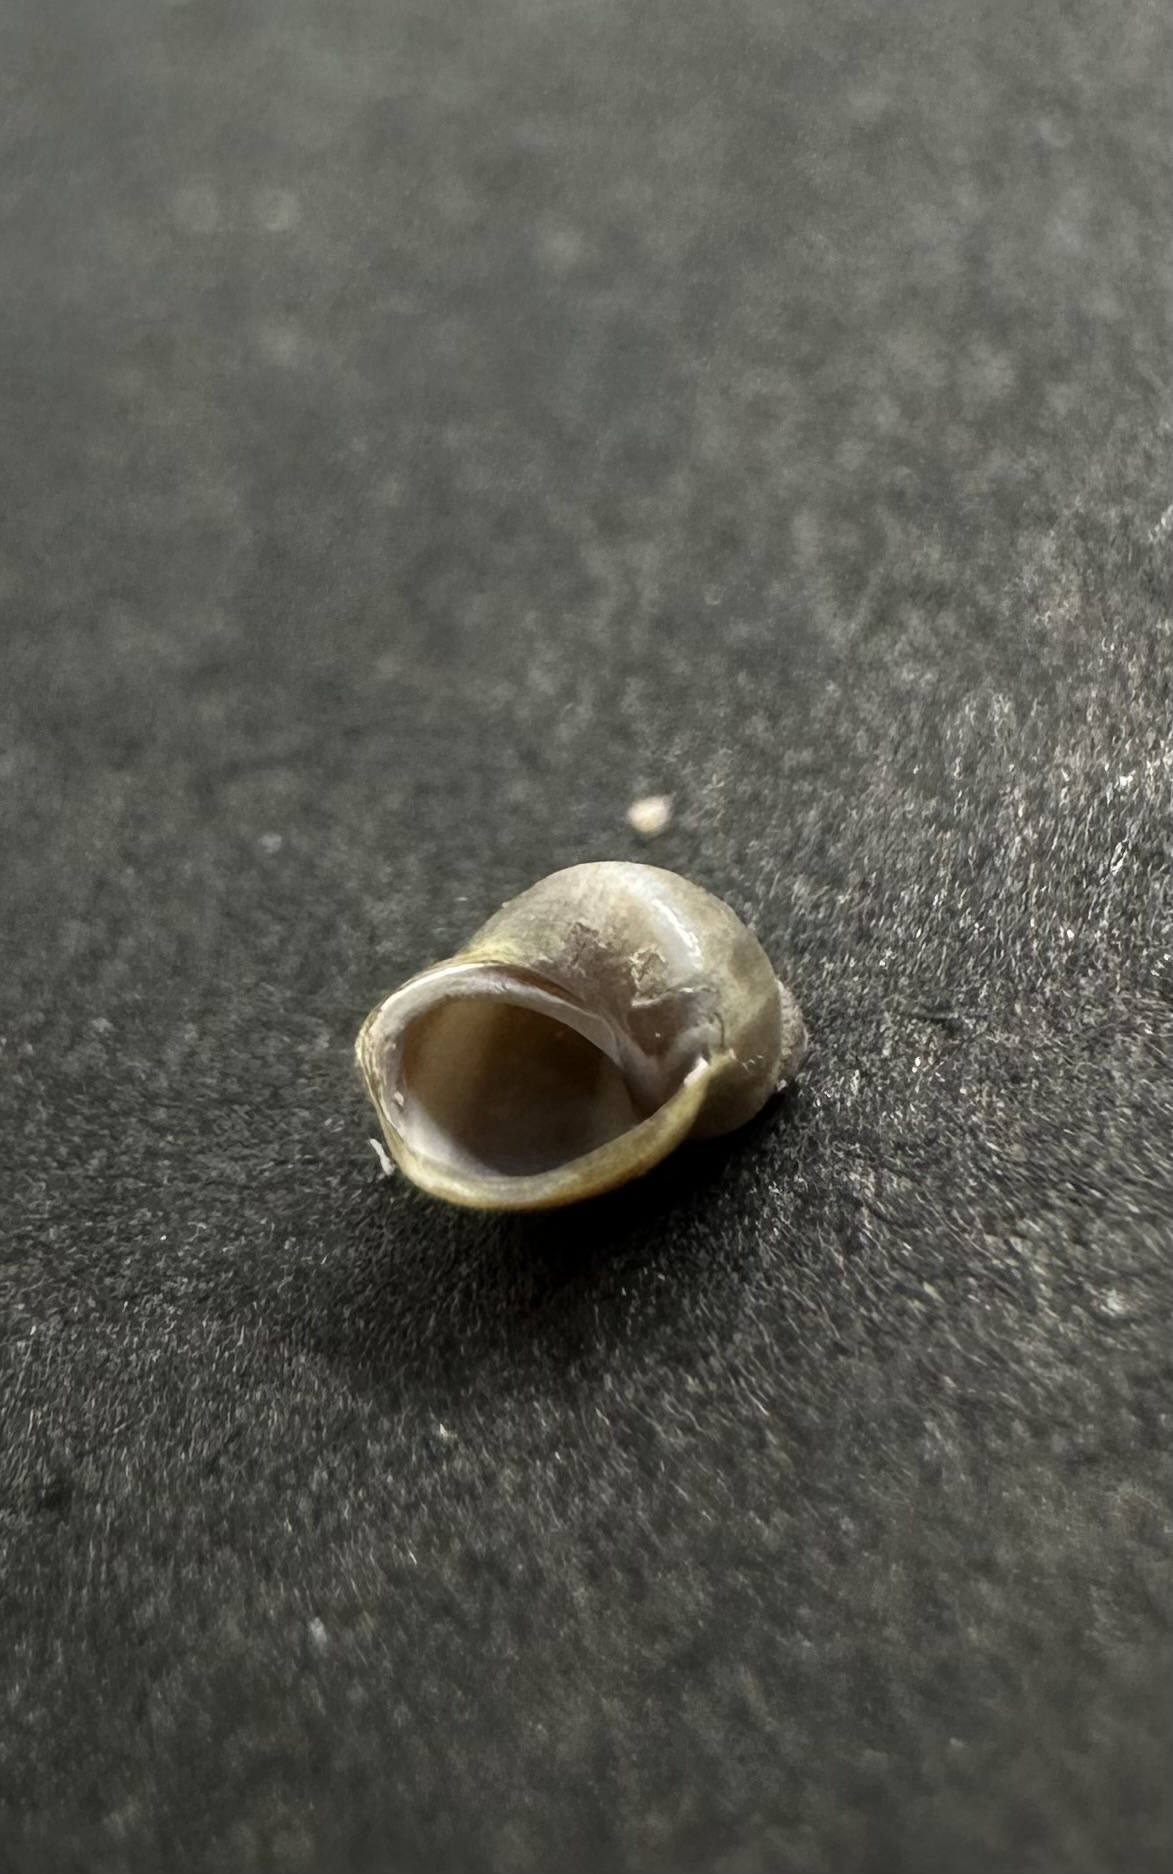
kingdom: Animalia
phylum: Mollusca
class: Gastropoda
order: Littorinimorpha
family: Littorinidae
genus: Lacuna
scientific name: Lacuna vincta
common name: Banded chink shell
